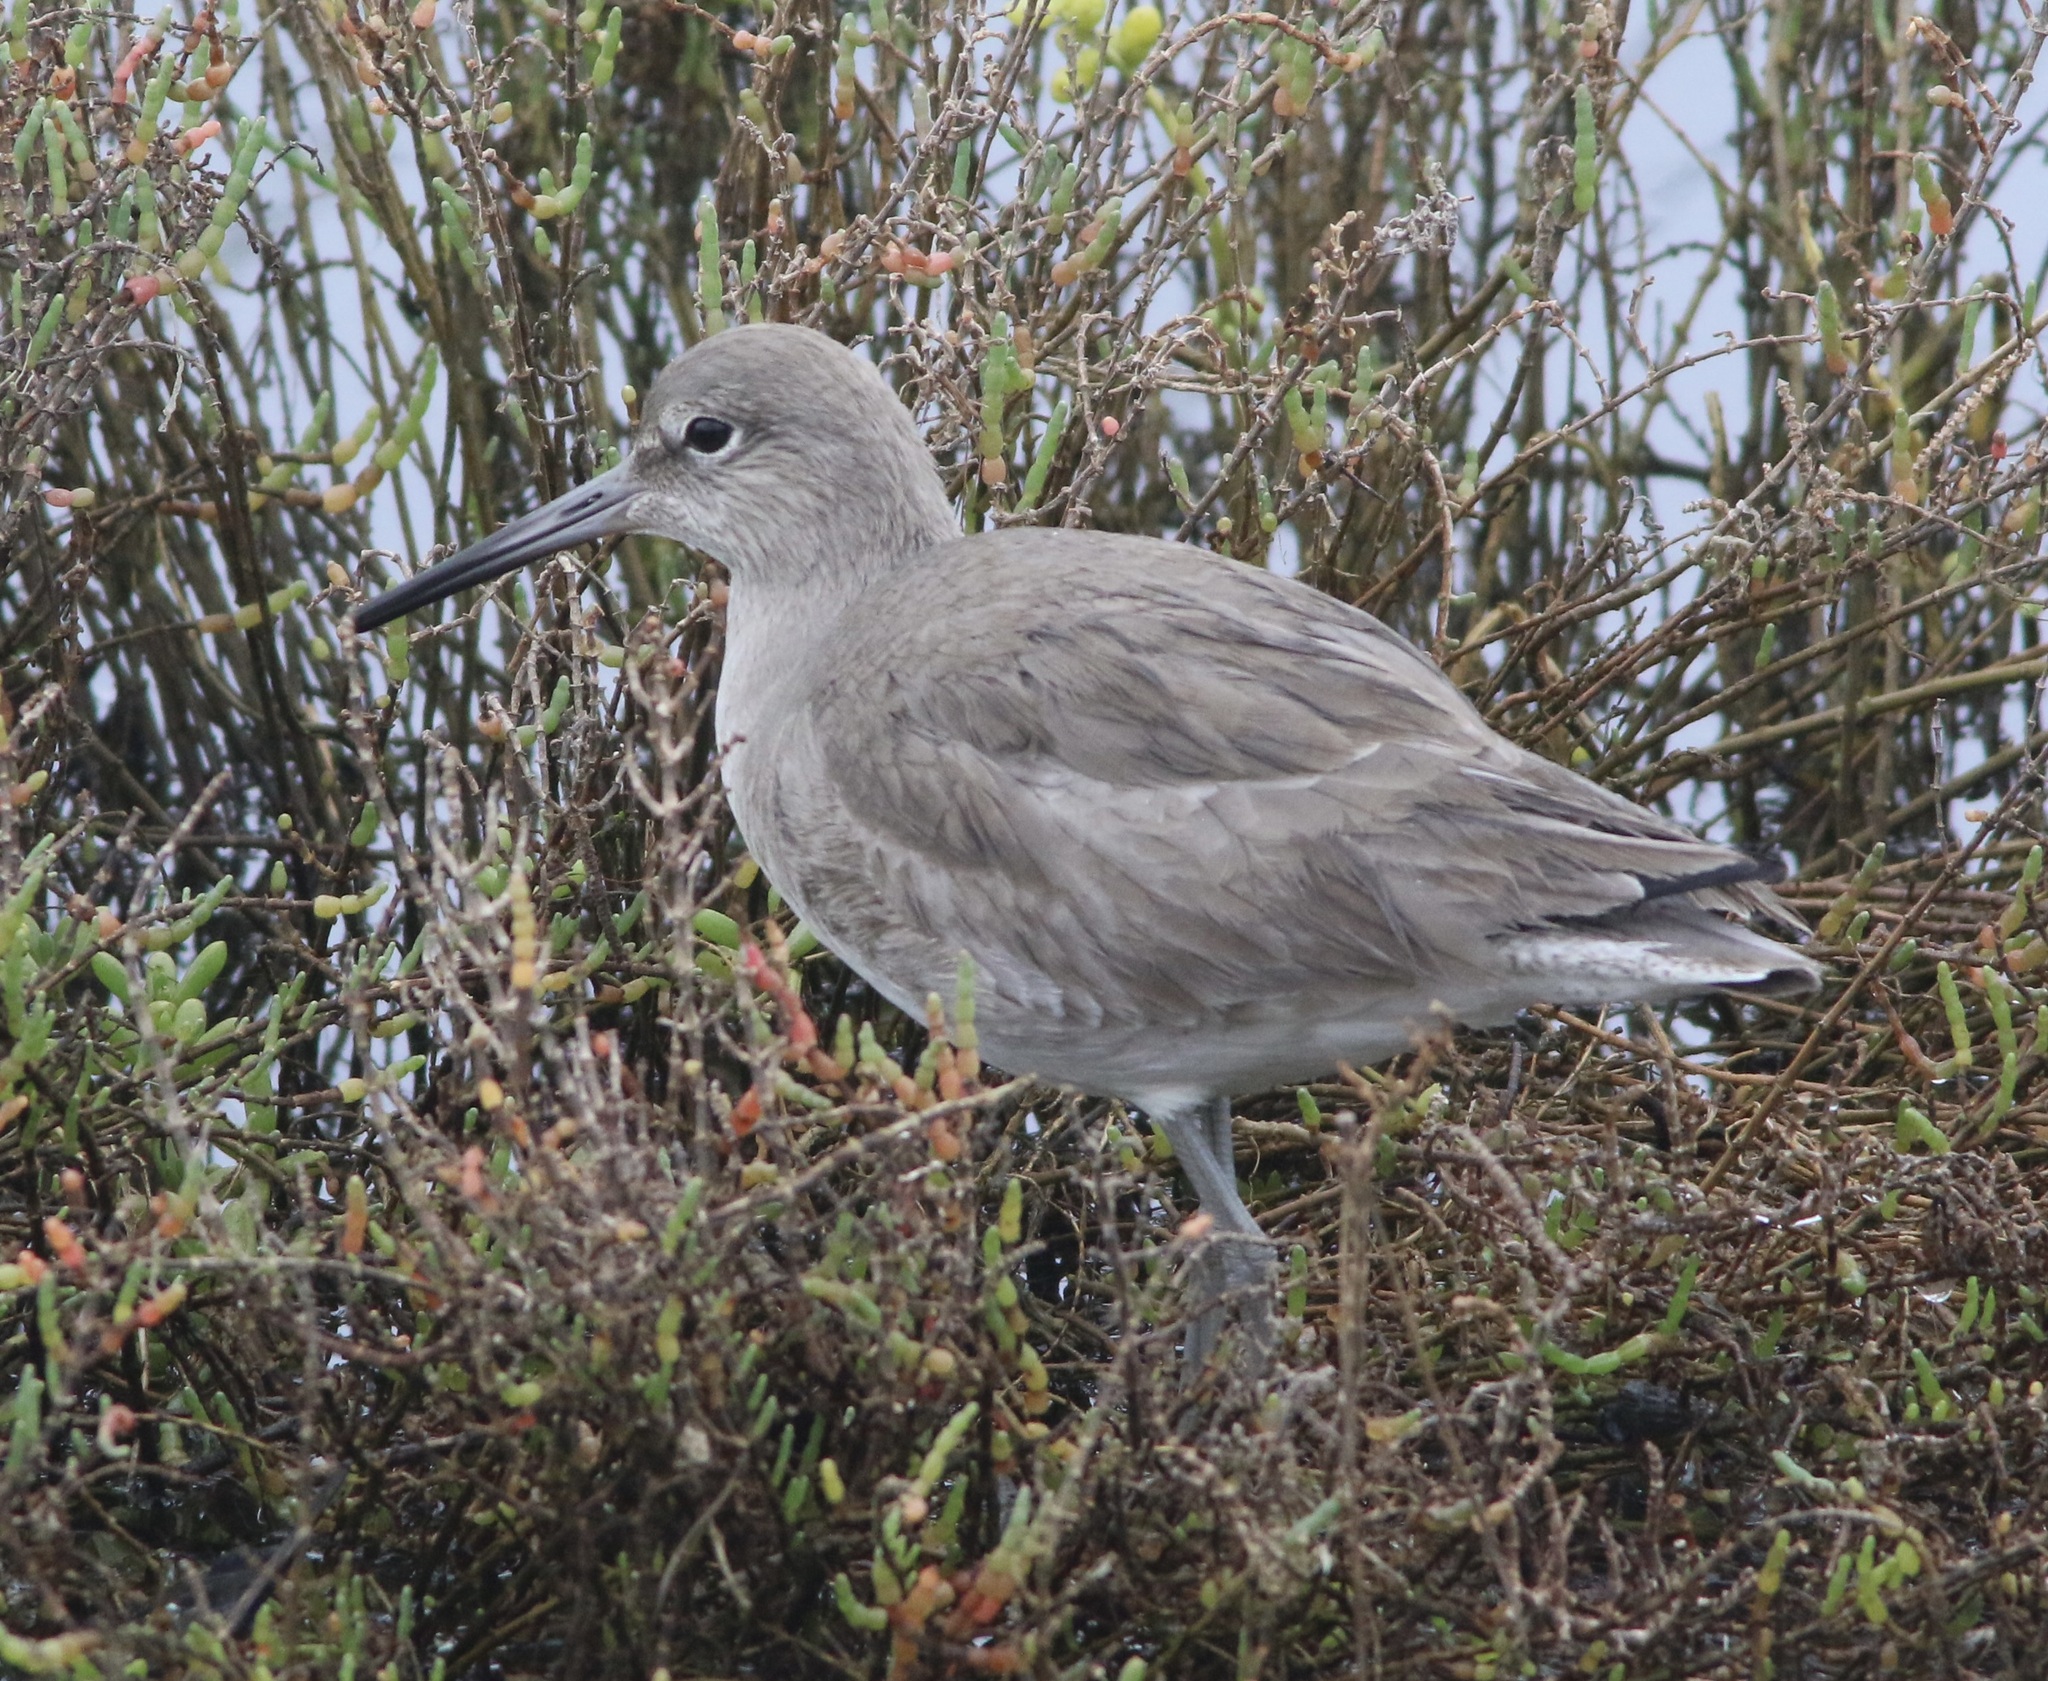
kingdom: Animalia
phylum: Chordata
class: Aves
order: Charadriiformes
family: Scolopacidae
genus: Tringa
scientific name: Tringa semipalmata
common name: Willet
